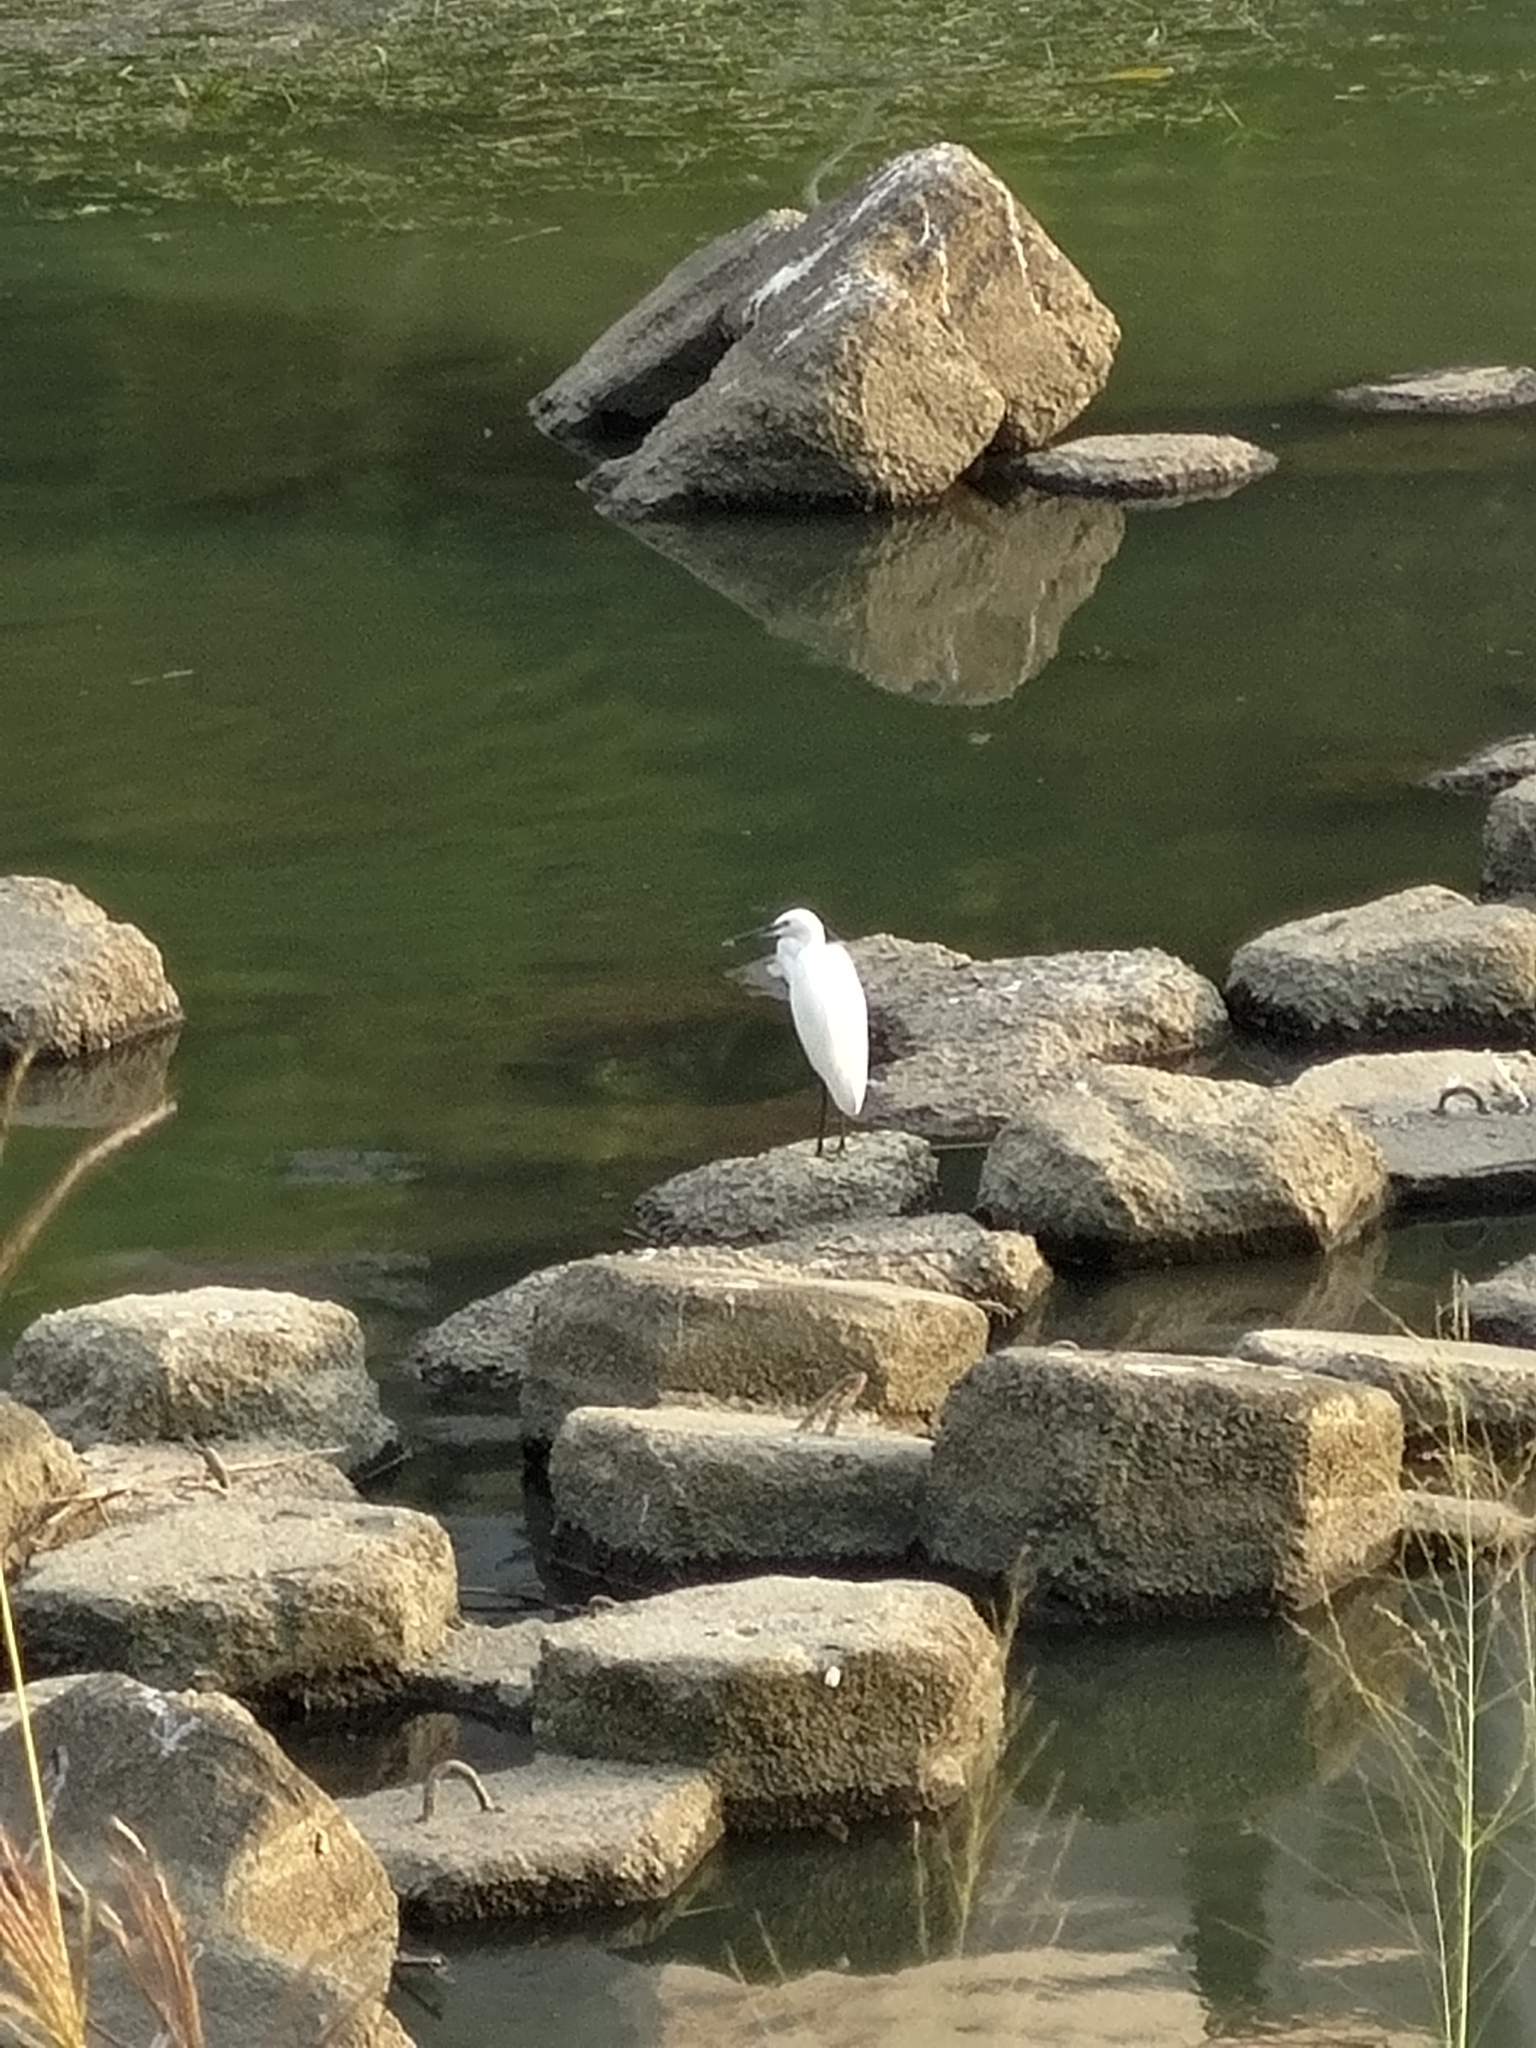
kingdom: Animalia
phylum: Chordata
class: Aves
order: Pelecaniformes
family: Ardeidae
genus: Egretta
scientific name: Egretta garzetta
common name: Little egret
